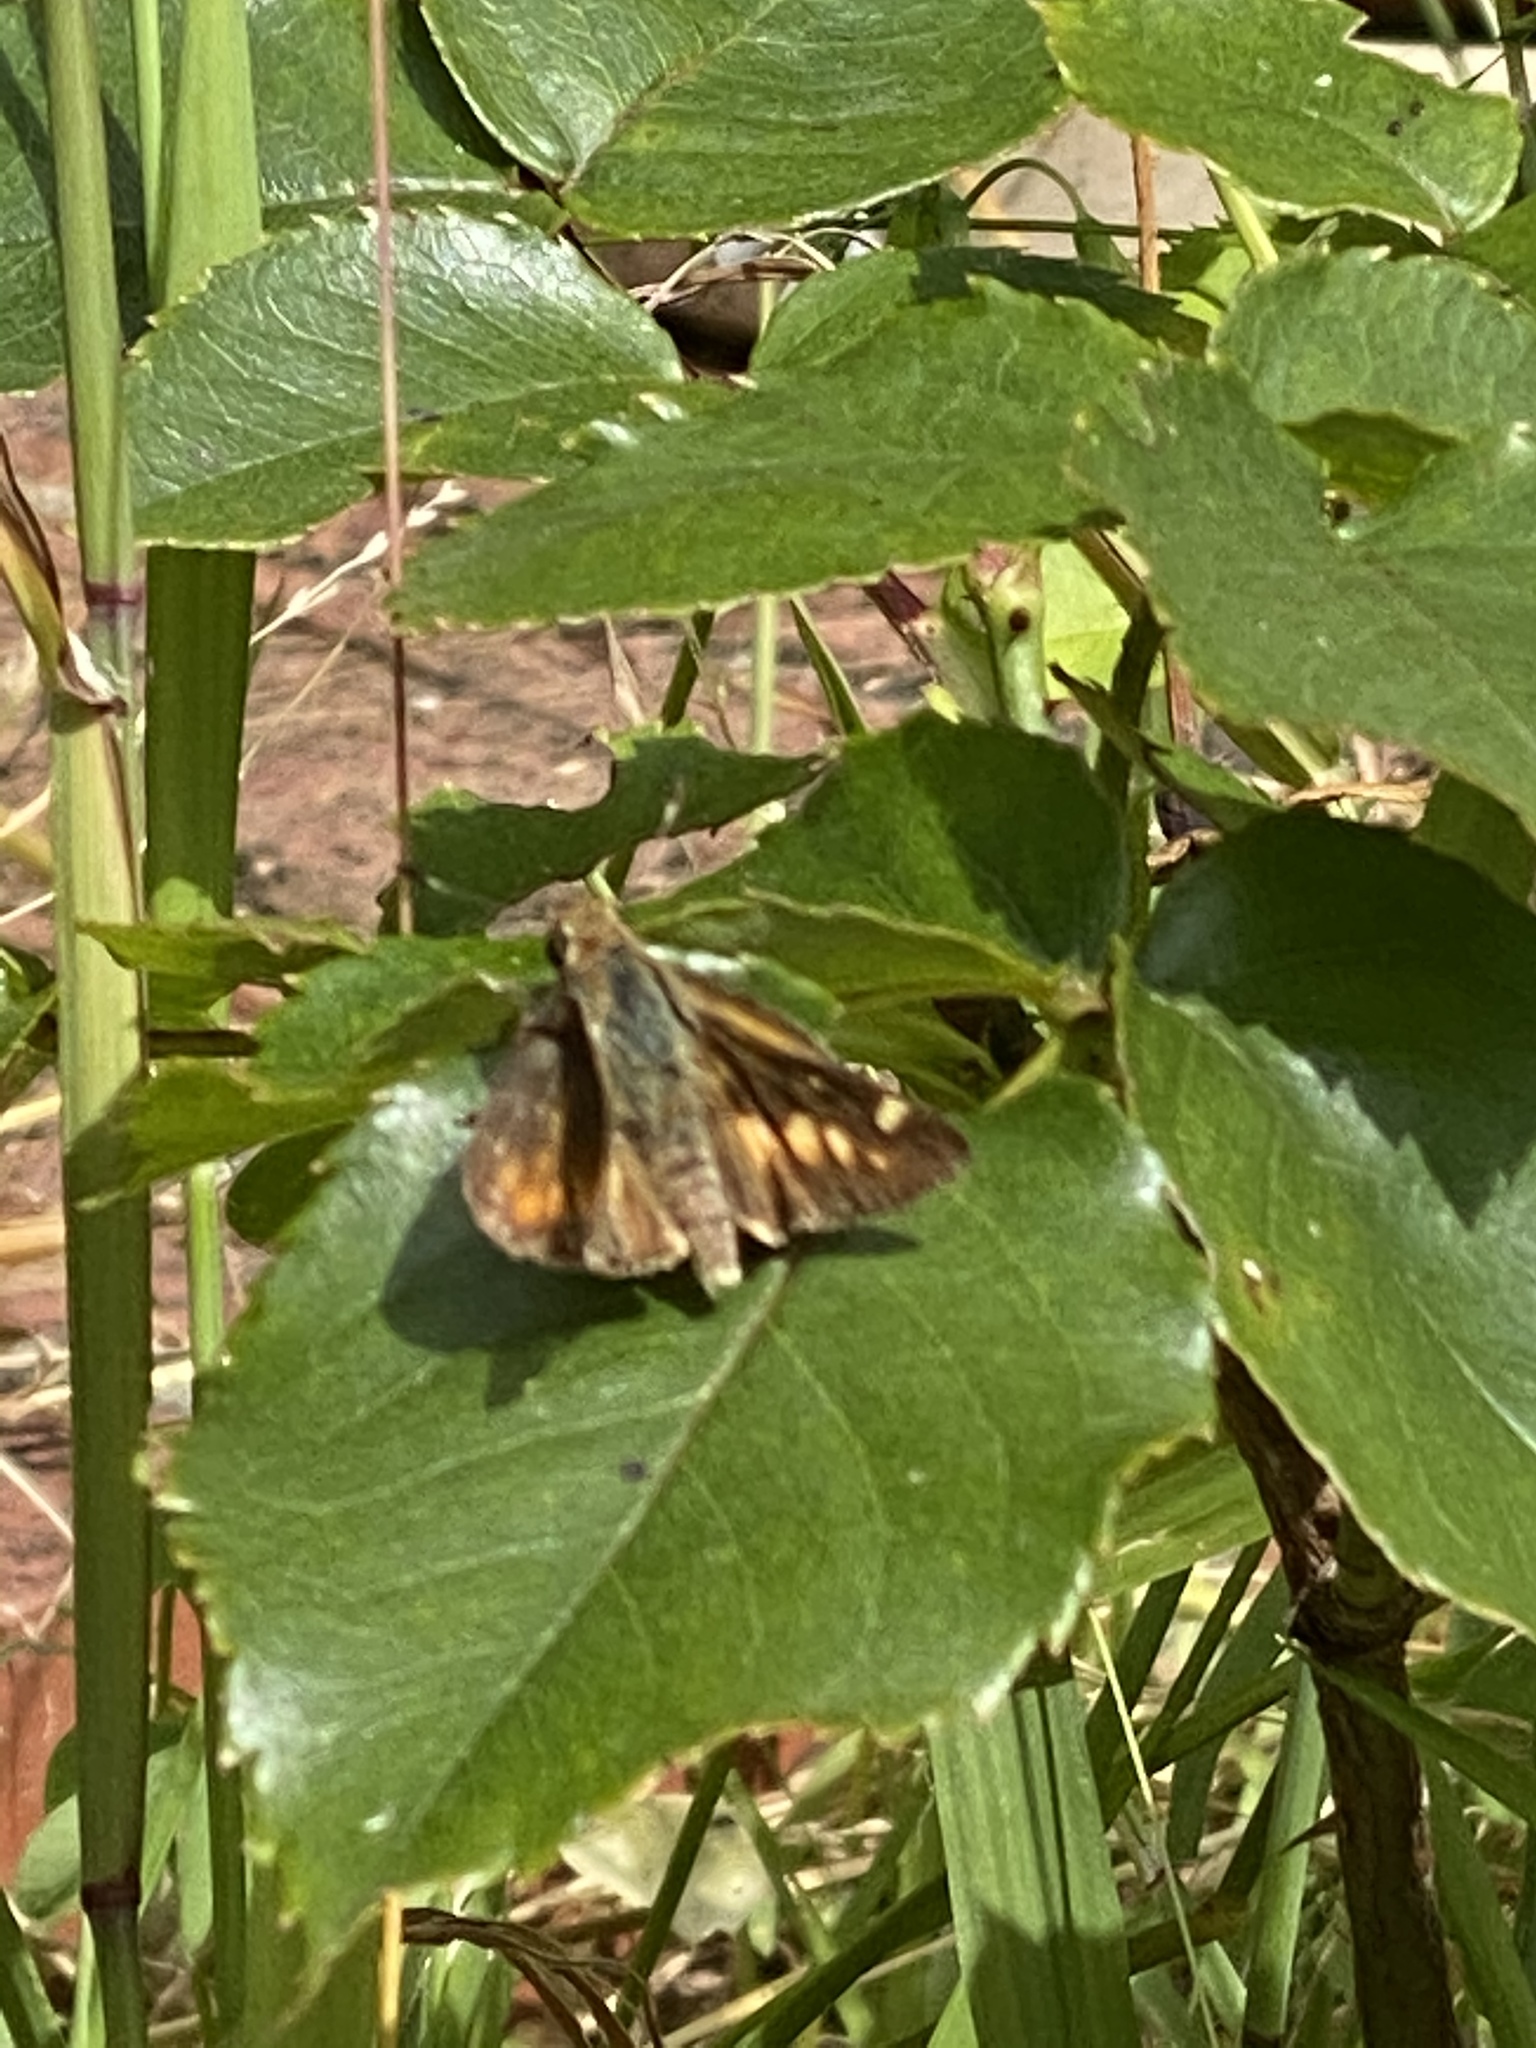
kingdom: Animalia
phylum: Arthropoda
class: Insecta
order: Lepidoptera
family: Hesperiidae
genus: Lon
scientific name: Lon melane
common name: Umber skipper
